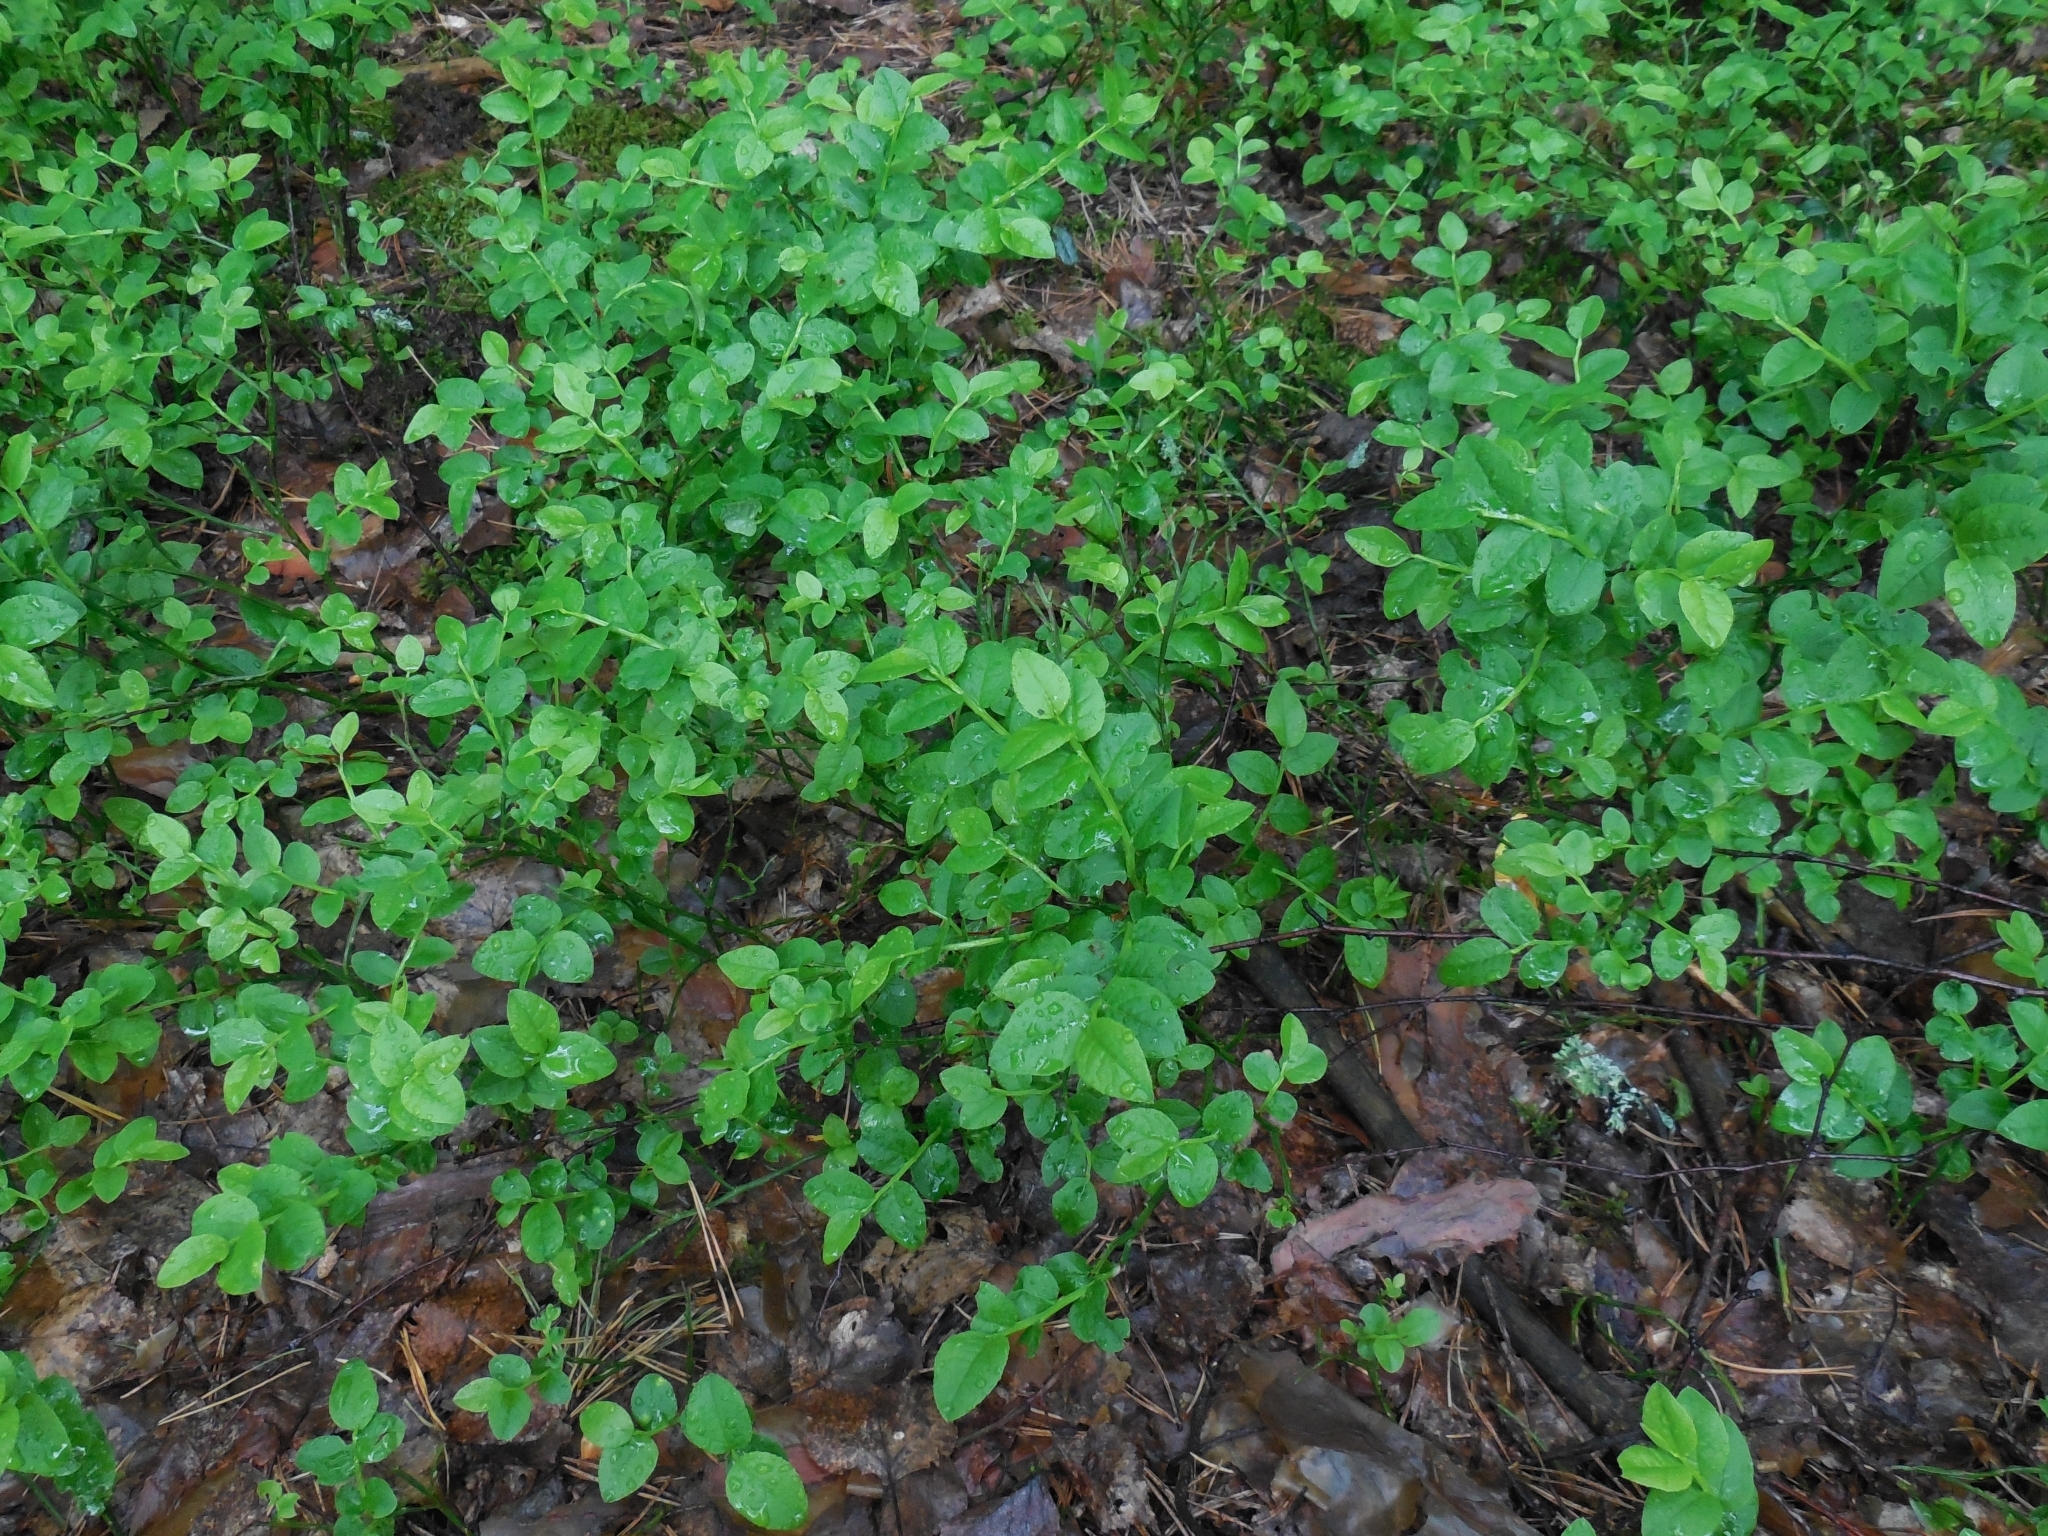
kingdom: Plantae
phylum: Tracheophyta
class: Magnoliopsida
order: Ericales
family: Ericaceae
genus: Vaccinium
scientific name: Vaccinium myrtillus
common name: Bilberry
